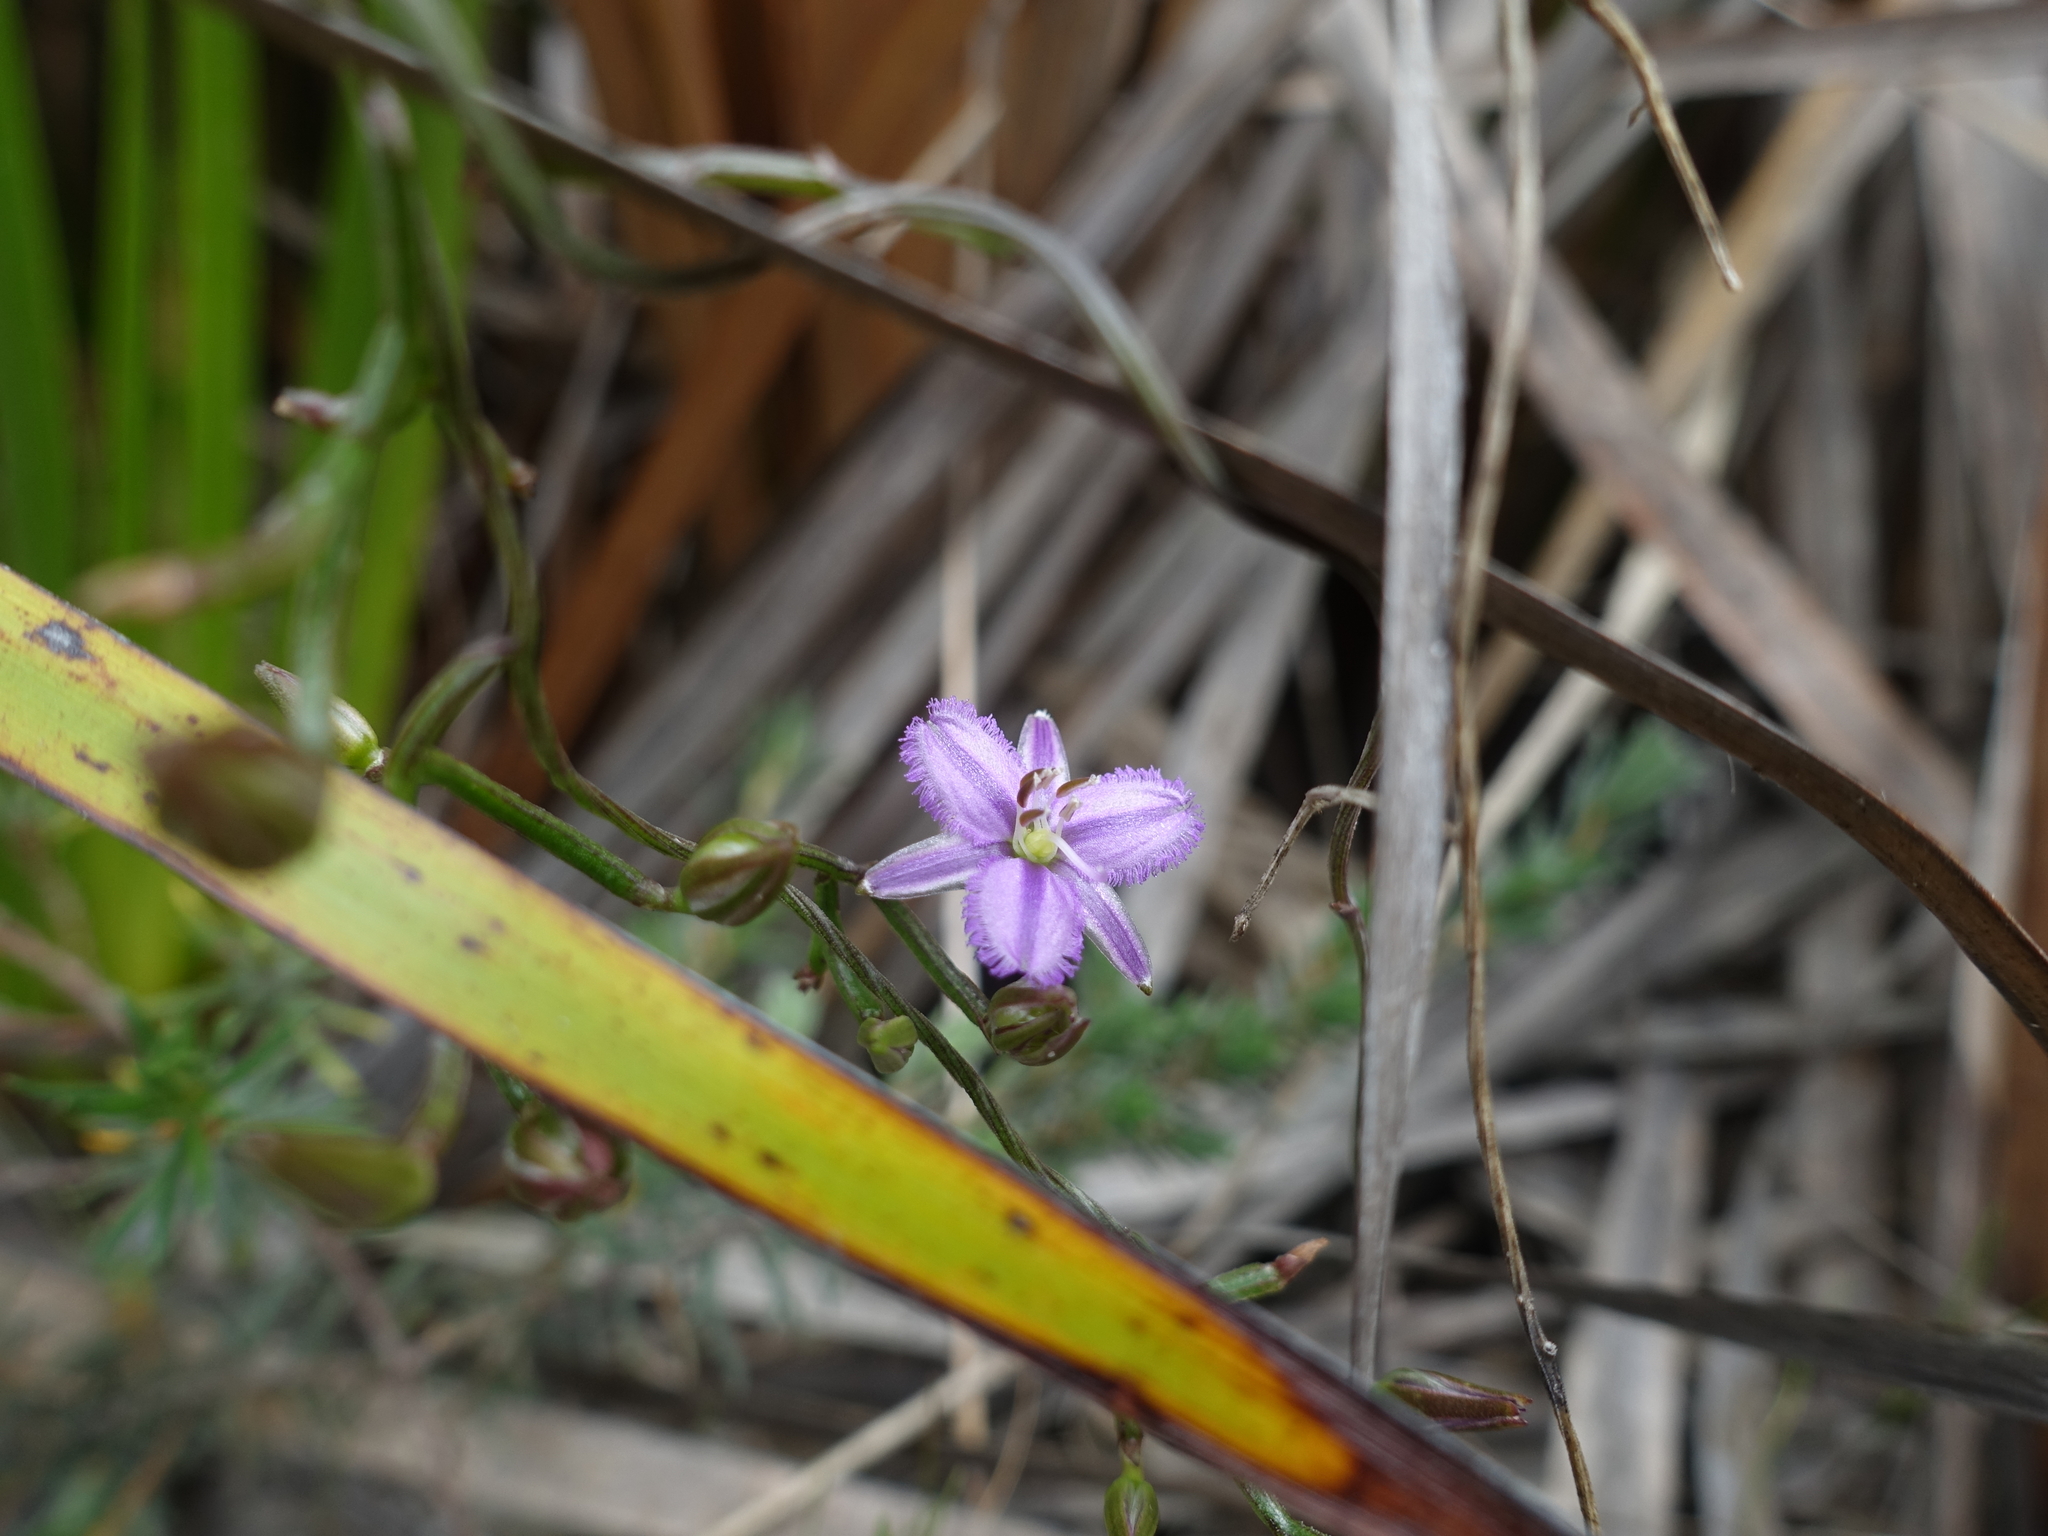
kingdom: Plantae
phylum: Tracheophyta
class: Liliopsida
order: Asparagales
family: Asparagaceae
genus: Thysanotus
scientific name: Thysanotus patersonii
